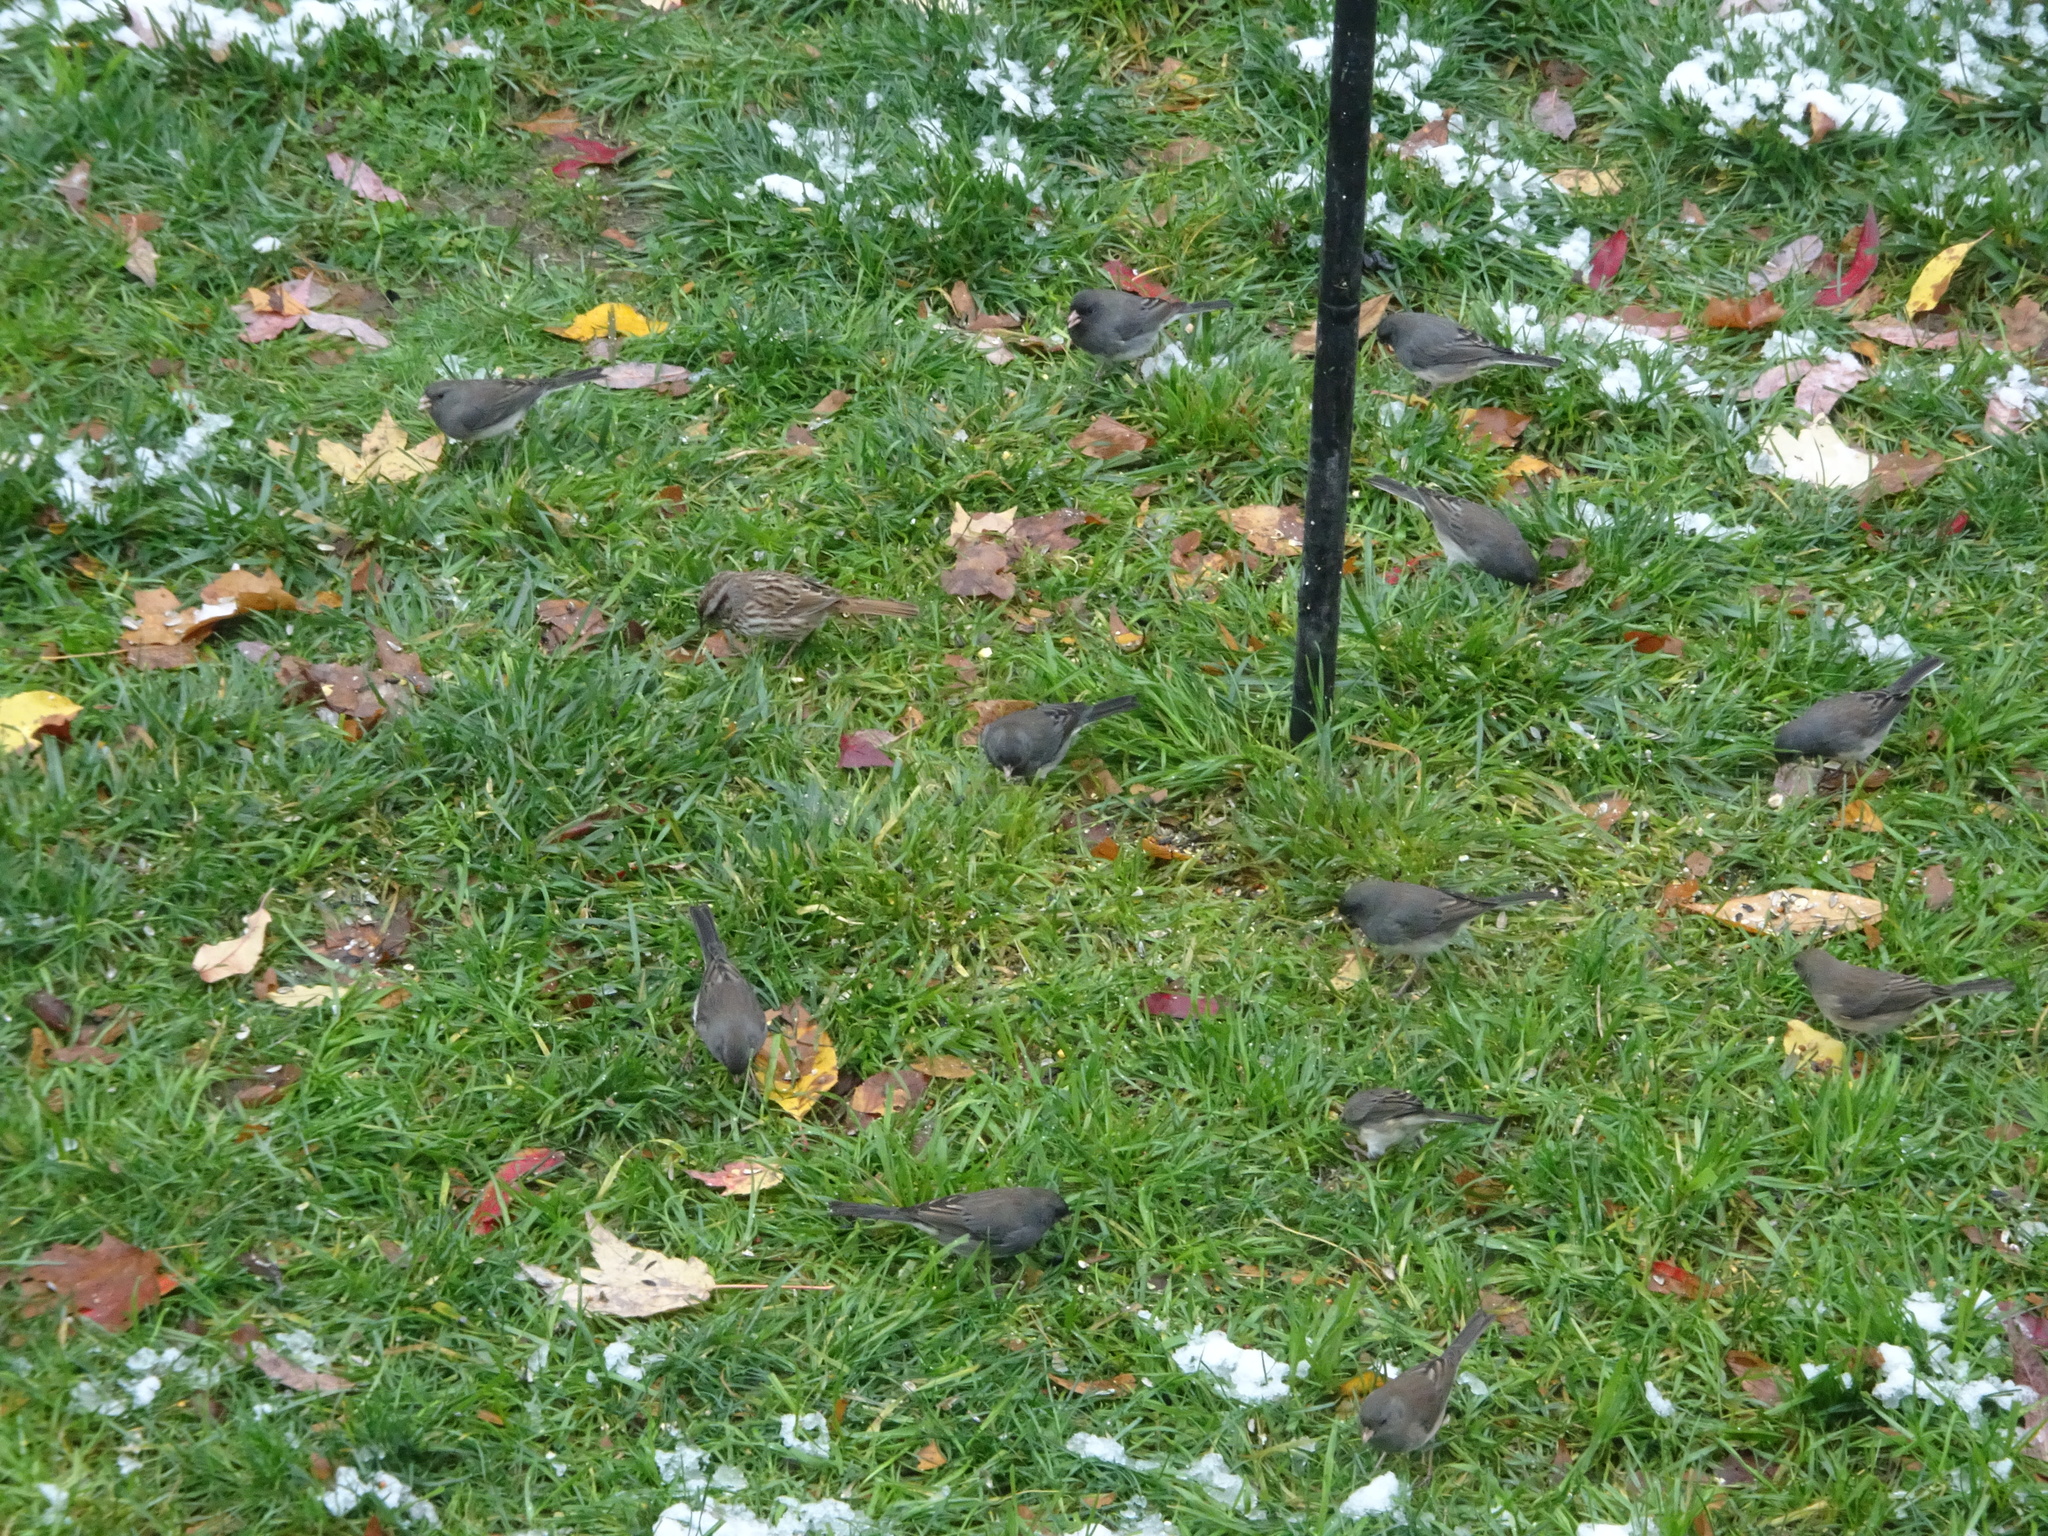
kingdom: Animalia
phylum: Chordata
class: Aves
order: Passeriformes
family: Passerellidae
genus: Melospiza
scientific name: Melospiza melodia
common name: Song sparrow
